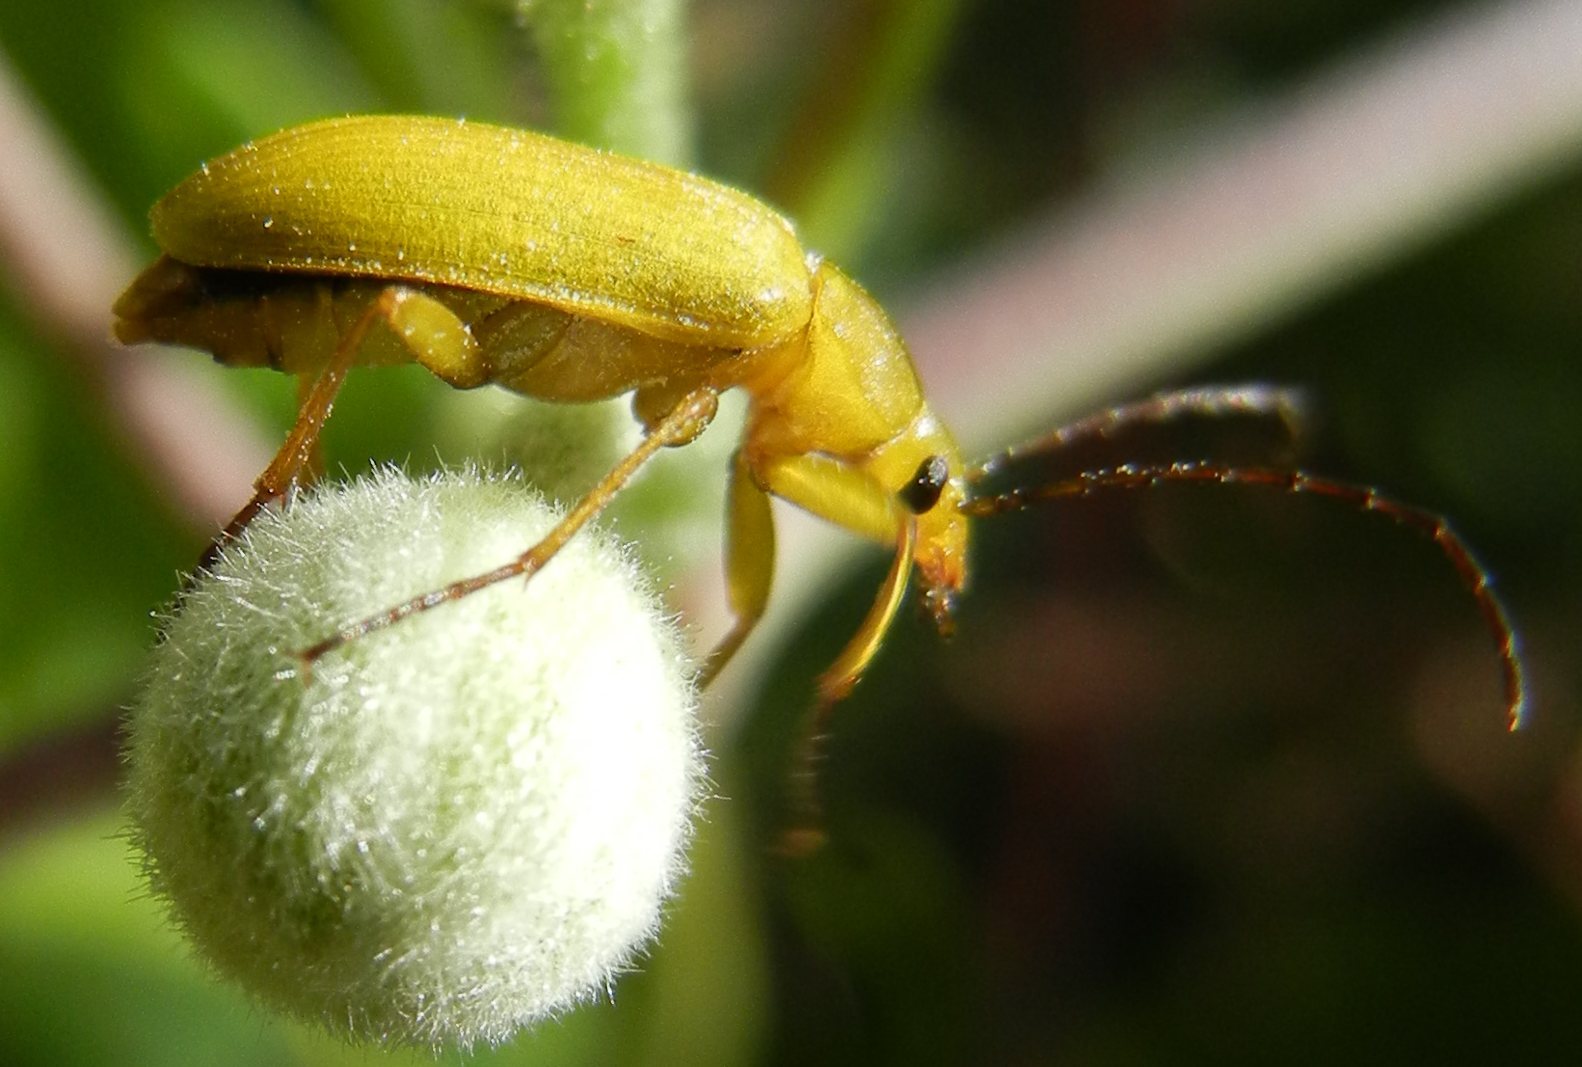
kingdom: Animalia
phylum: Arthropoda
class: Insecta
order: Coleoptera
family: Tenebrionidae
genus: Cteniopus
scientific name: Cteniopus sulphureus
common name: Sulphur beetle
